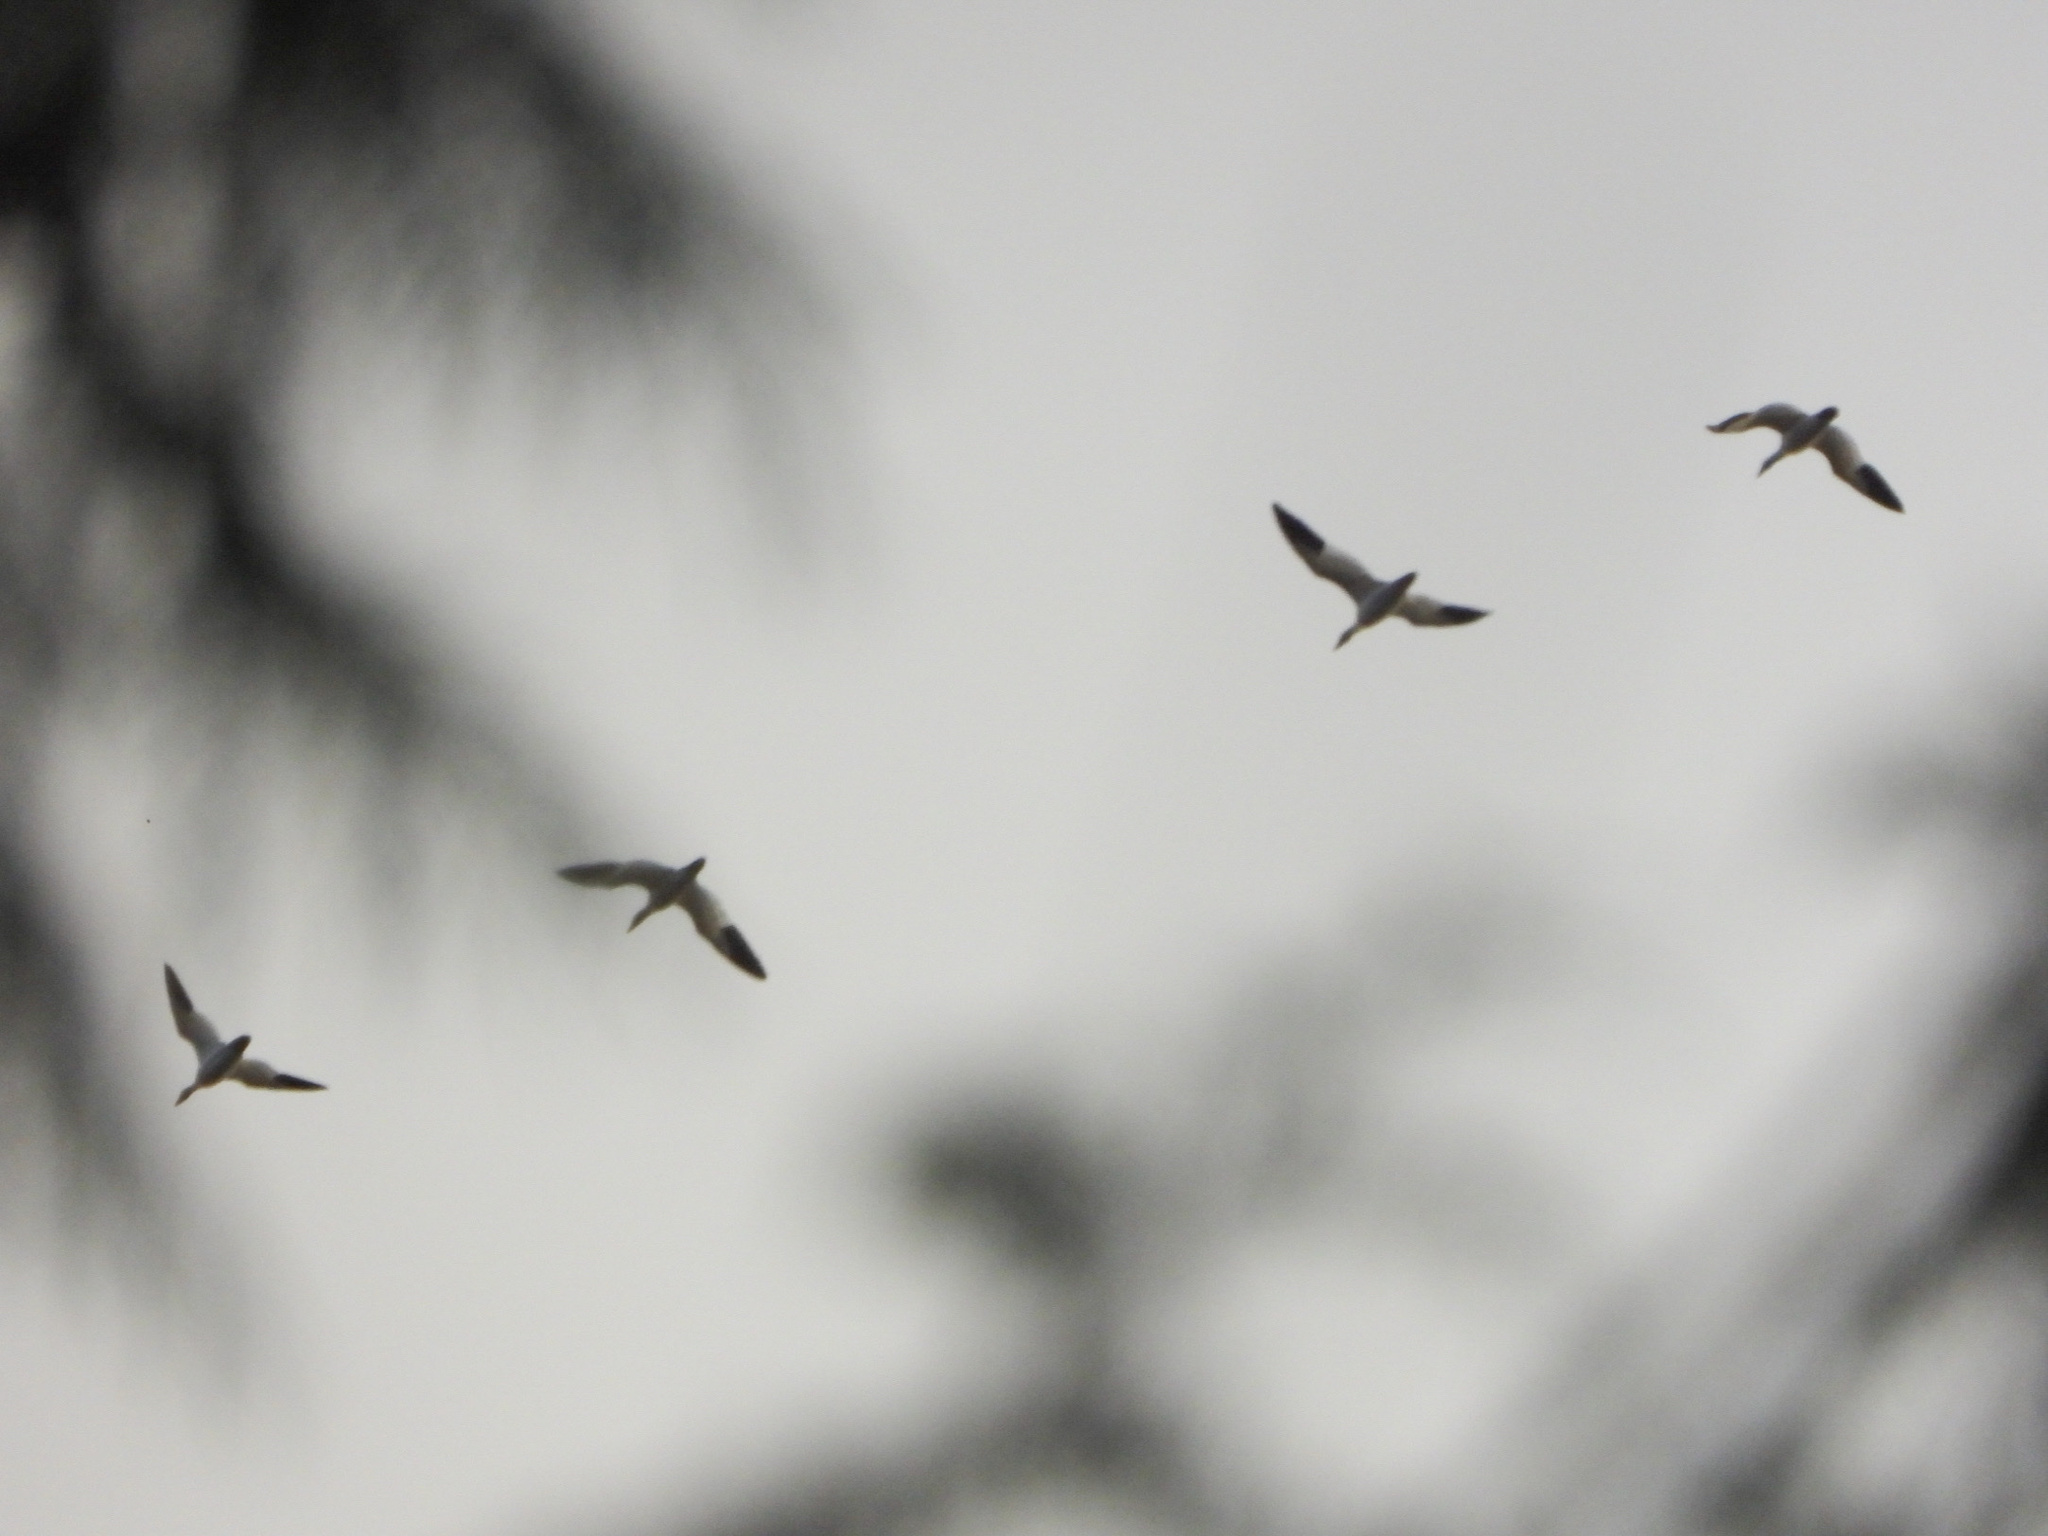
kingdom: Animalia
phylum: Chordata
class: Aves
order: Anseriformes
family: Anatidae
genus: Anser
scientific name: Anser caerulescens
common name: Snow goose
